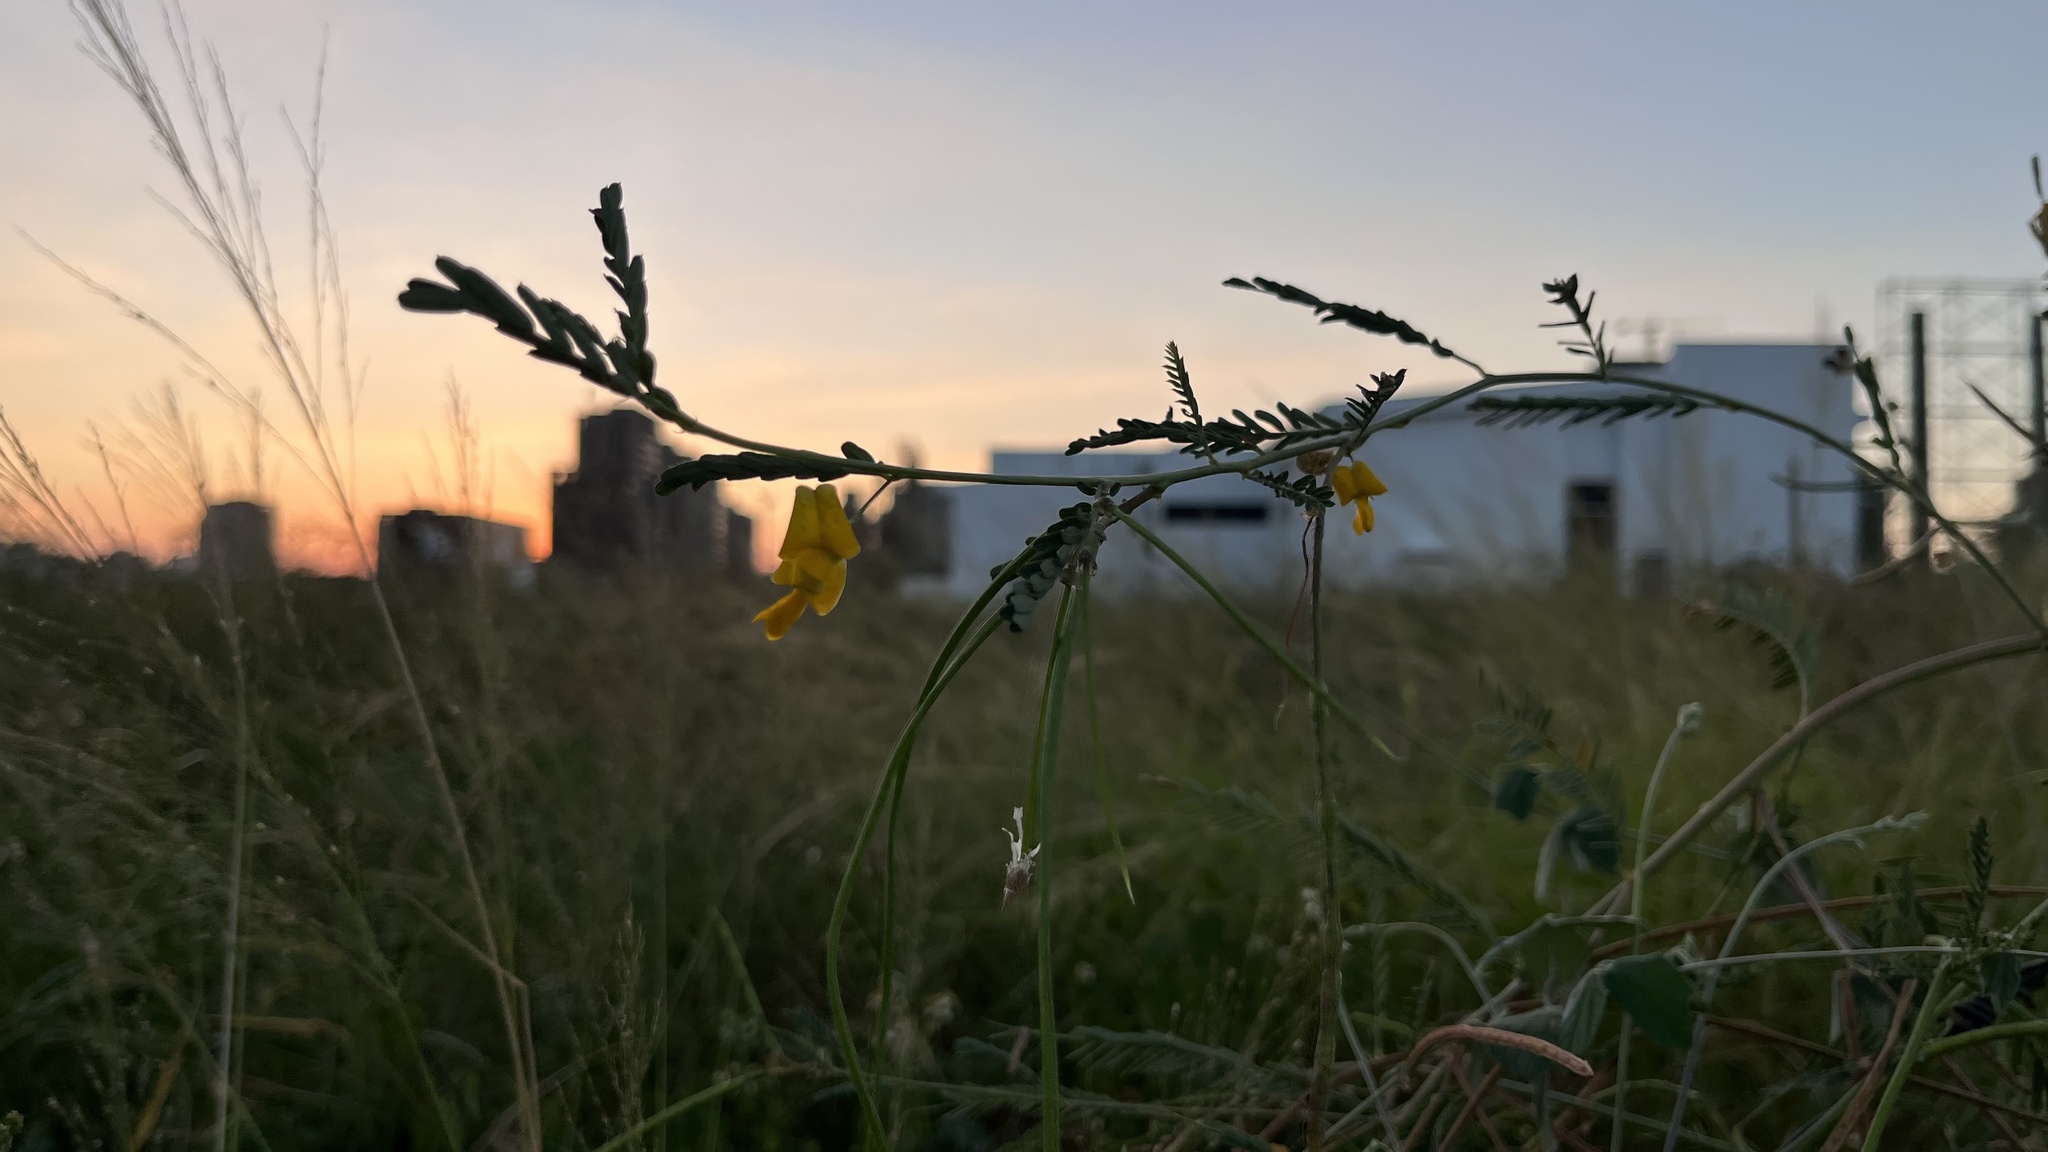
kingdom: Plantae
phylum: Tracheophyta
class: Magnoliopsida
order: Fabales
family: Fabaceae
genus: Sesbania
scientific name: Sesbania cannabina
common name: Canicha
